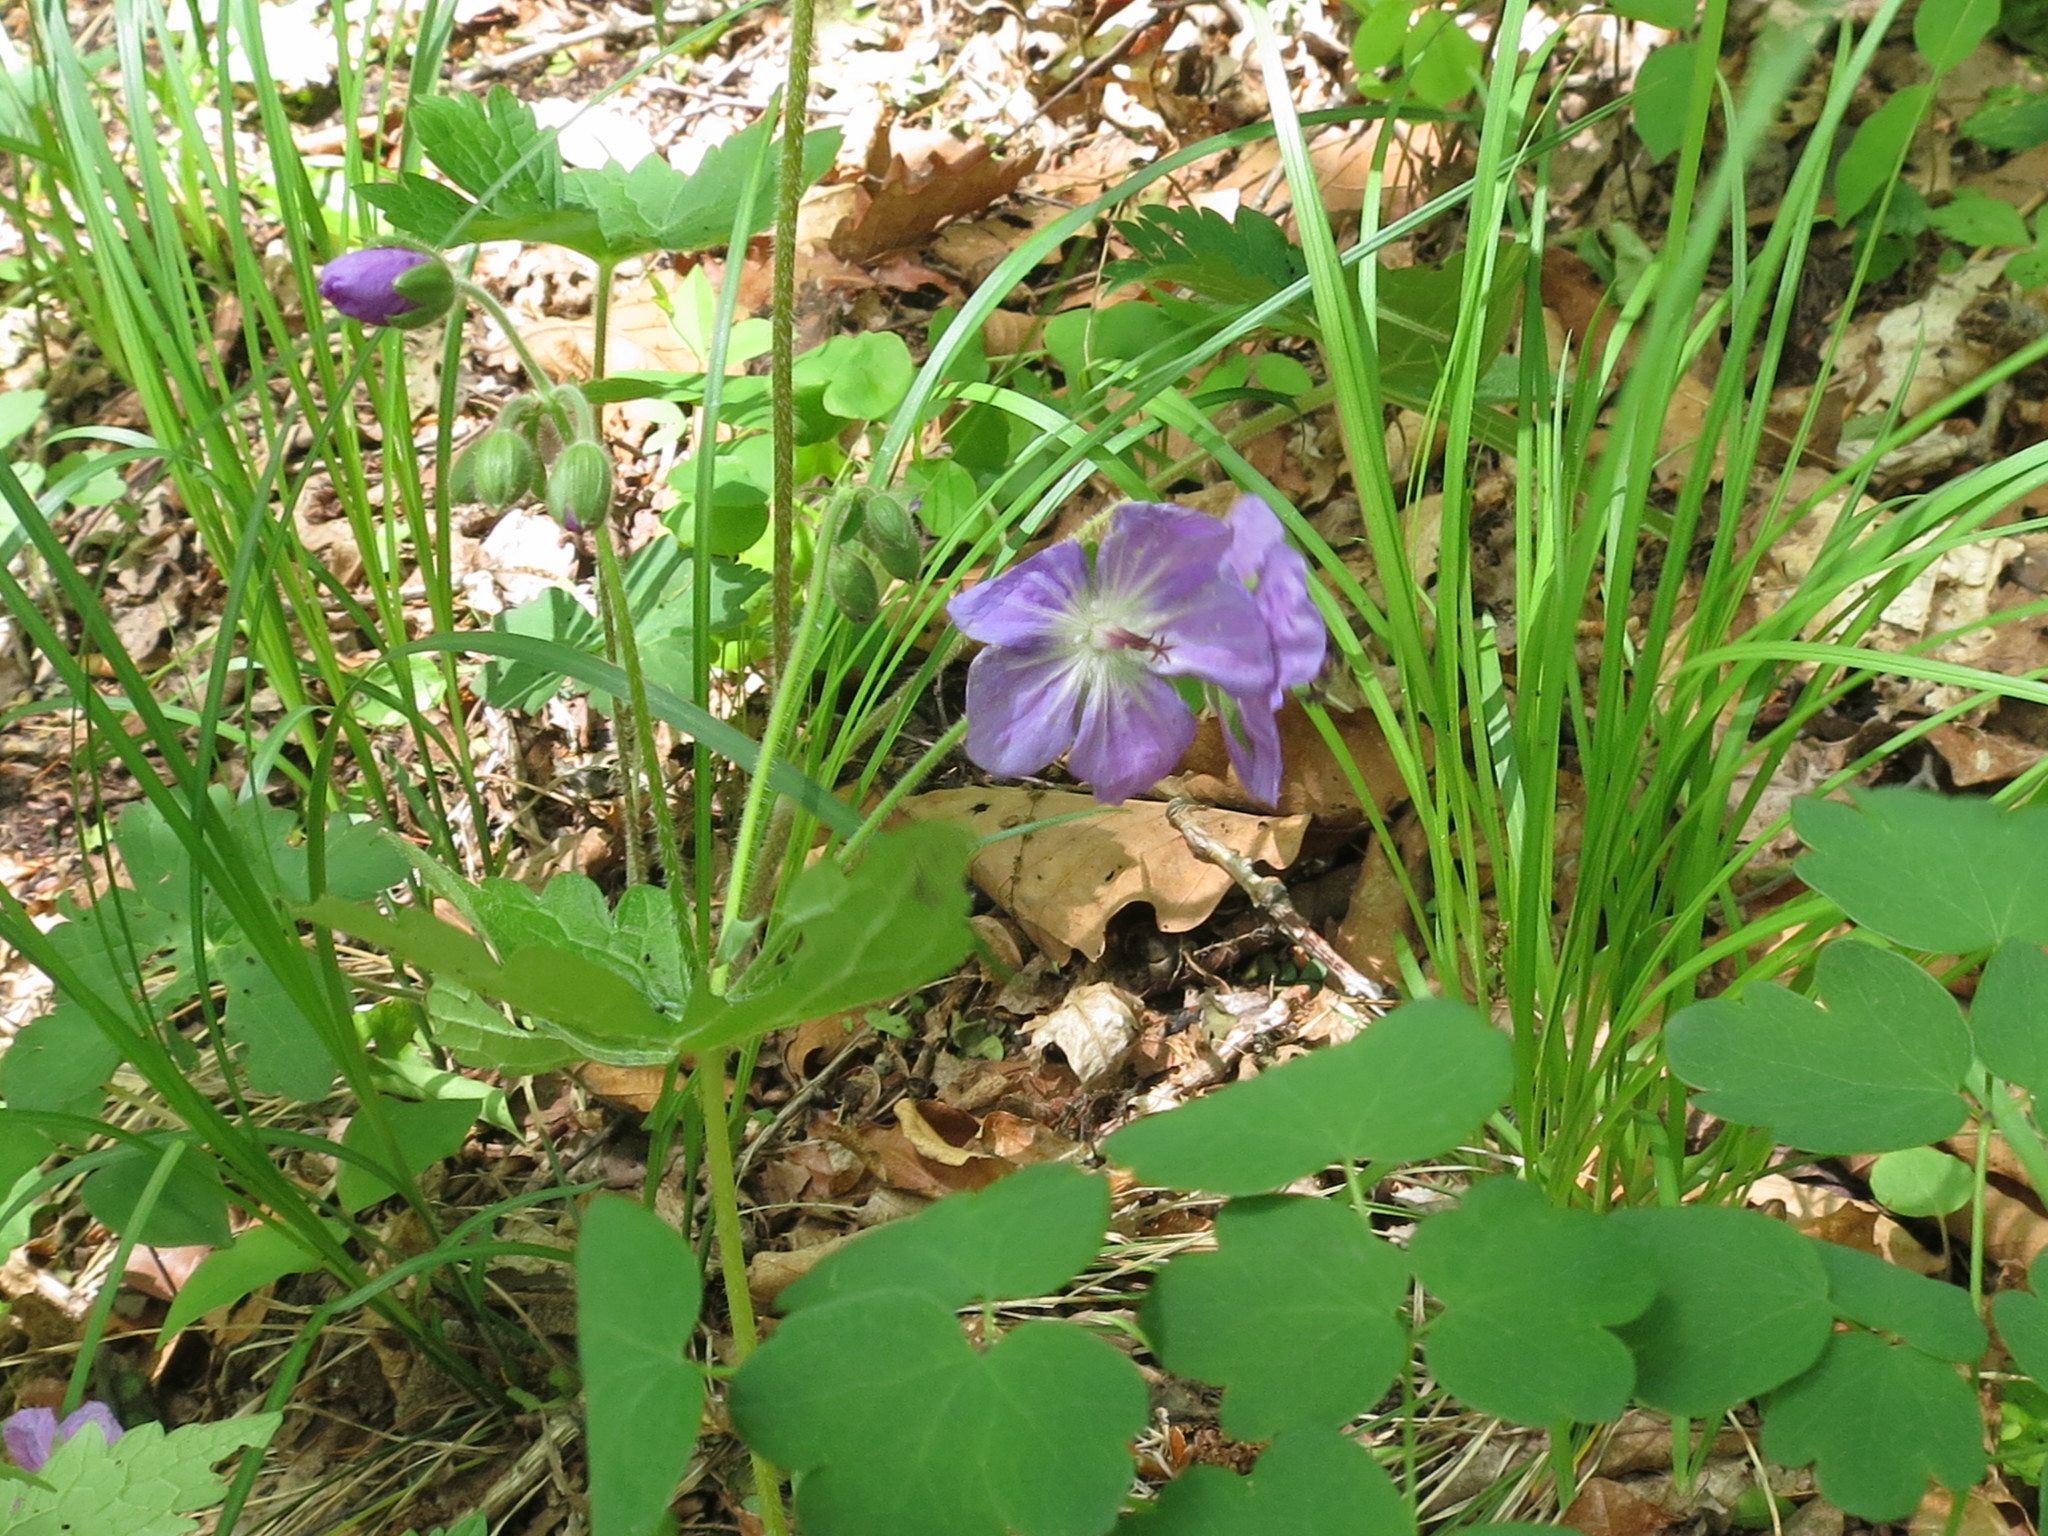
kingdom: Plantae
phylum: Tracheophyta
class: Magnoliopsida
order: Geraniales
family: Geraniaceae
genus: Geranium
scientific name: Geranium platyanthum
